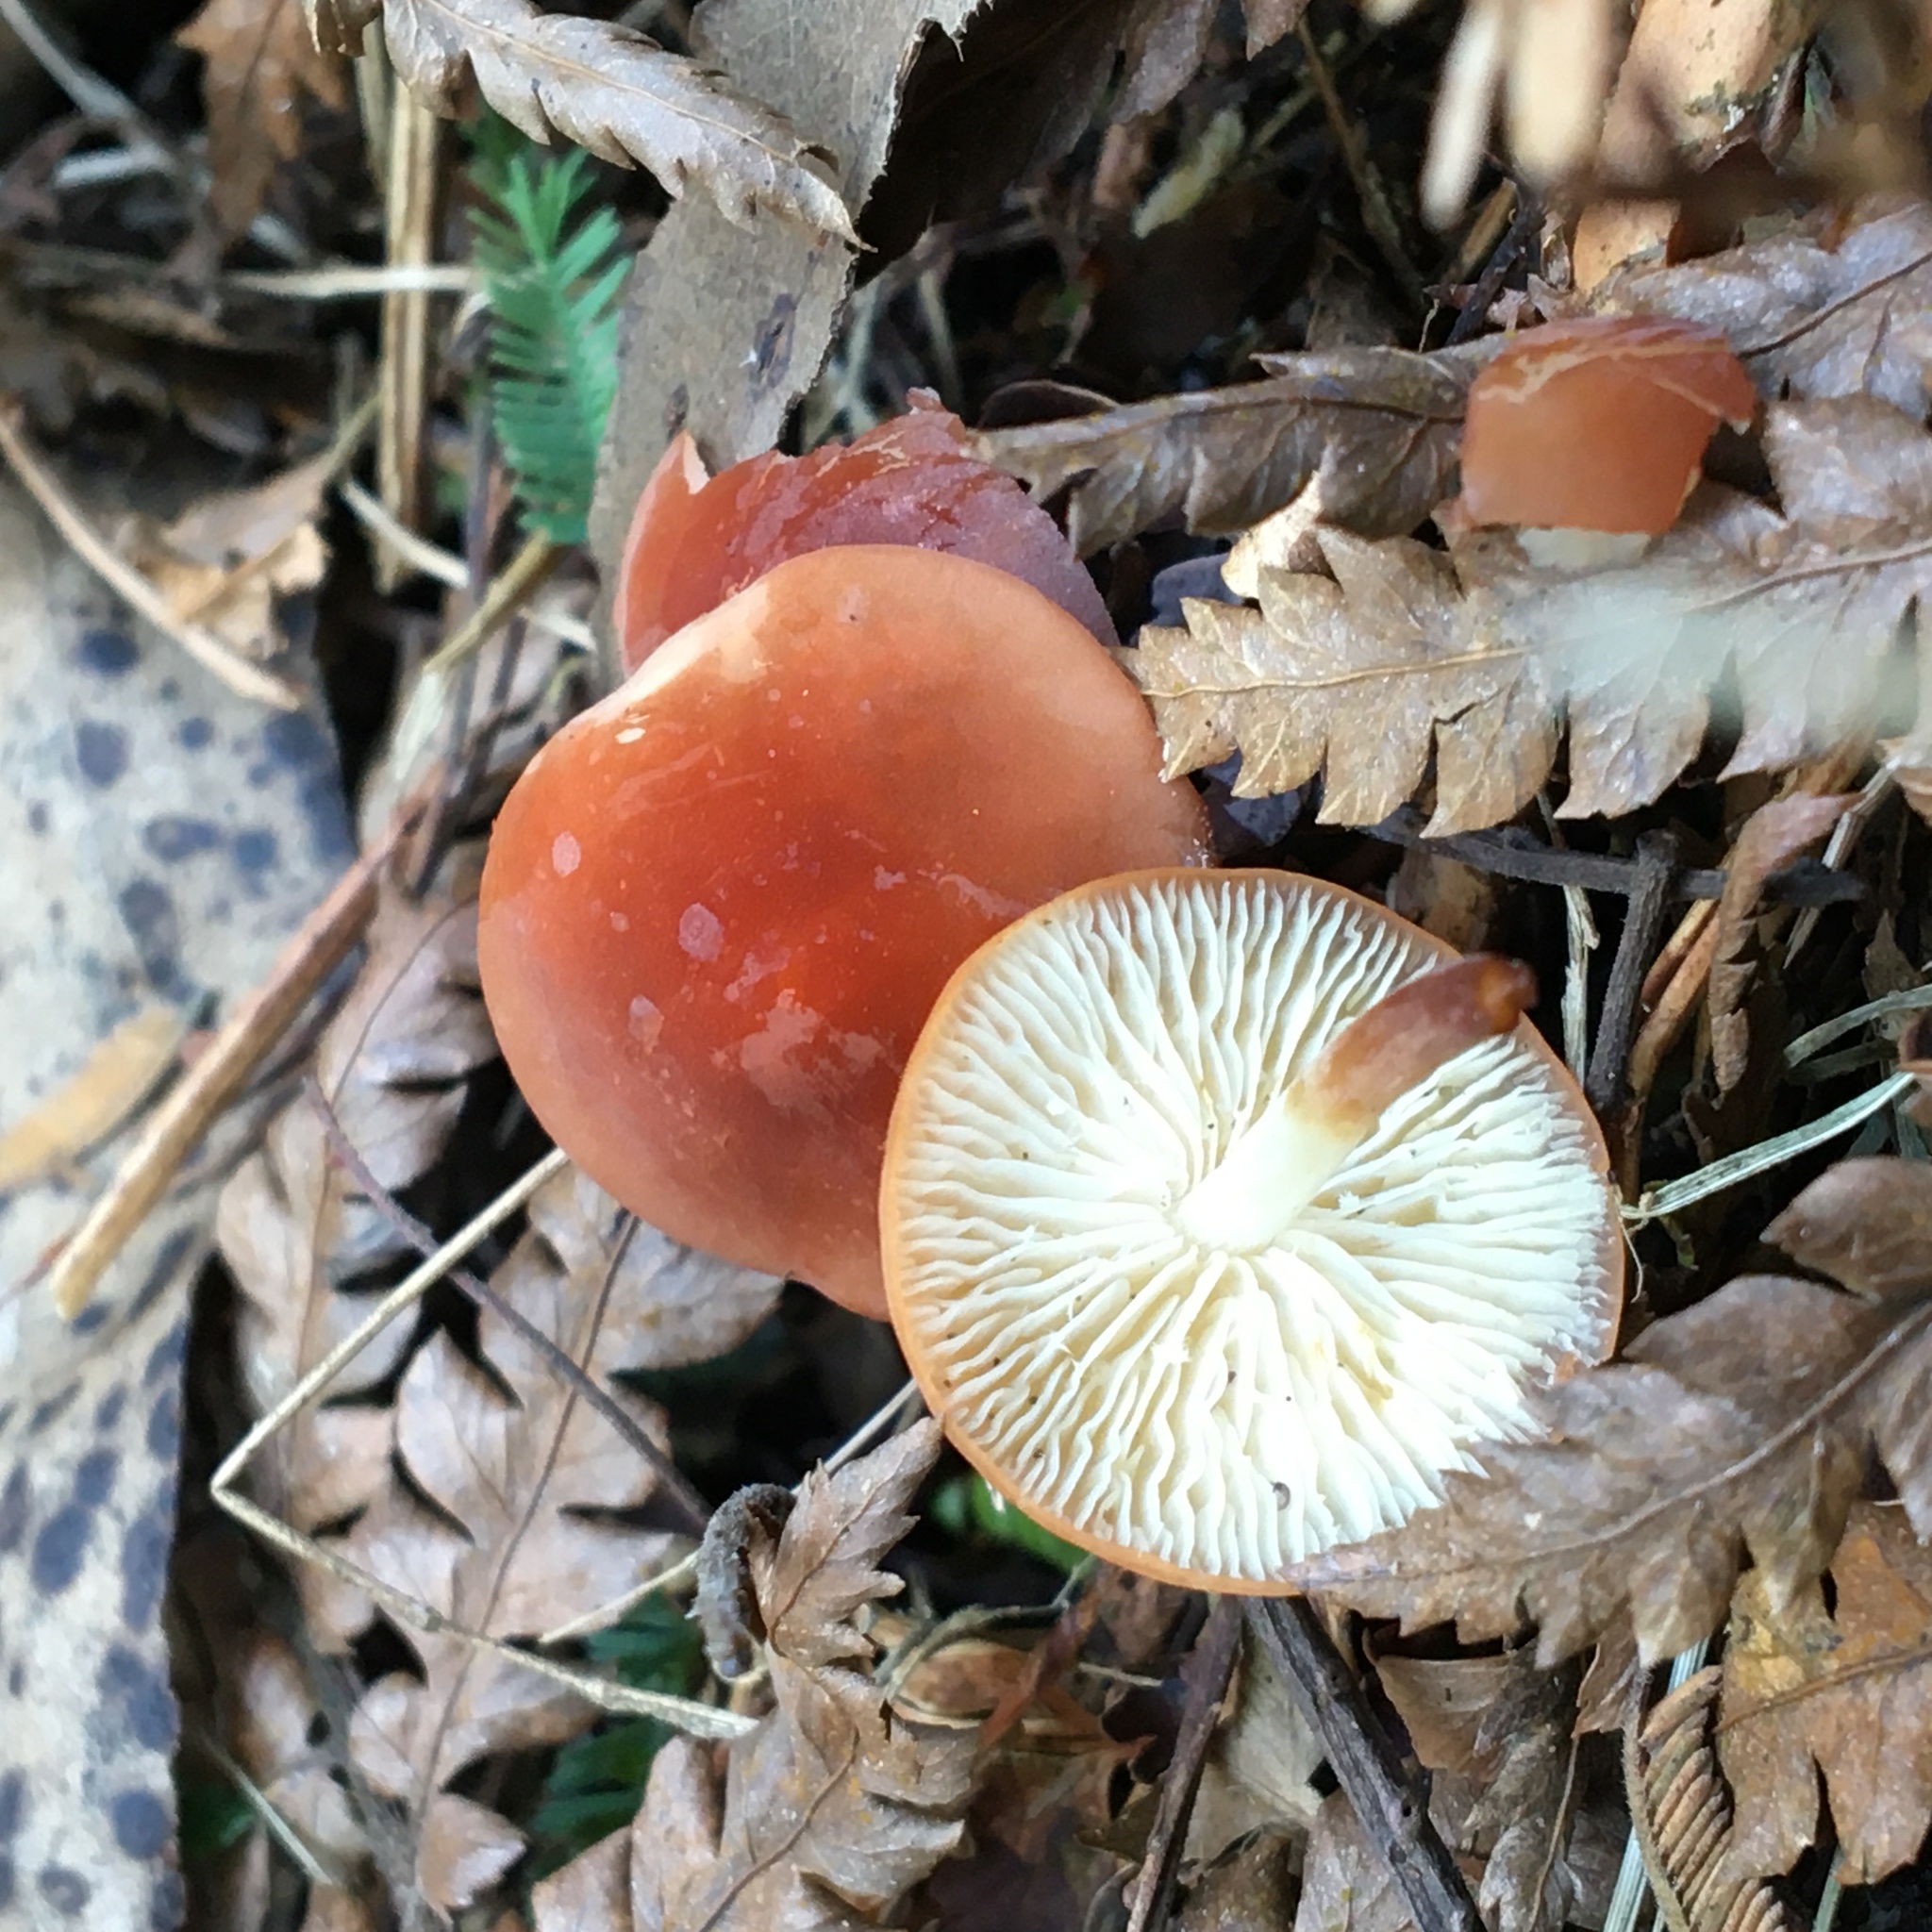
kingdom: Fungi
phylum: Basidiomycota
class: Agaricomycetes
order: Agaricales
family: Marasmiaceae
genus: Marasmius
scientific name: Marasmius elegans
